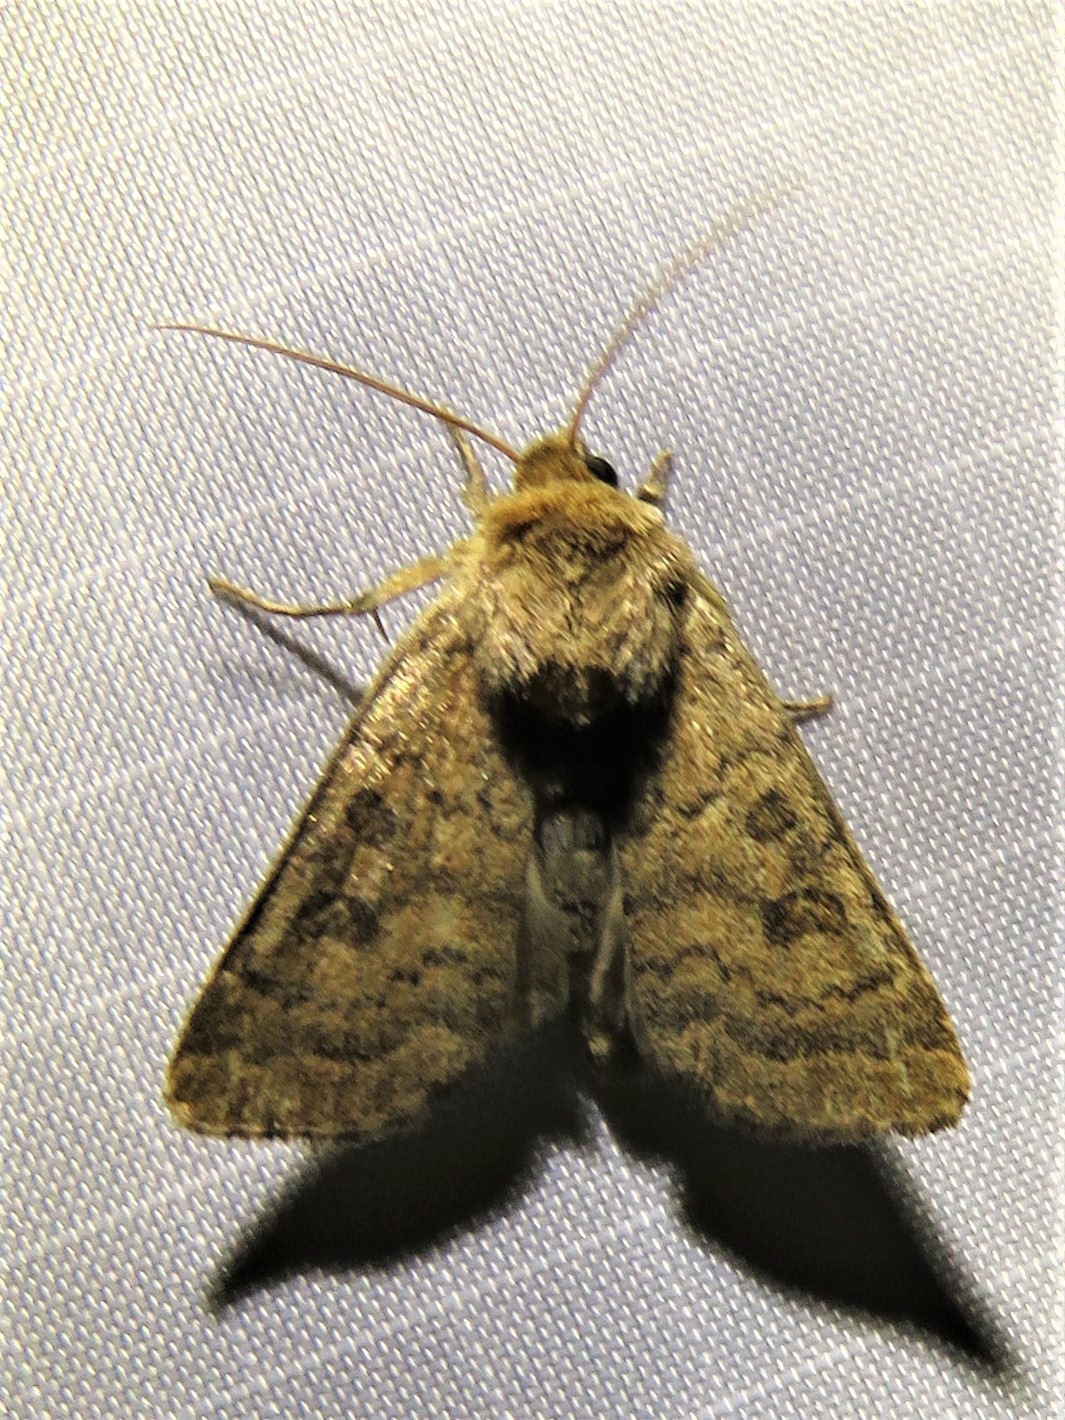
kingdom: Animalia
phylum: Arthropoda
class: Insecta
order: Lepidoptera
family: Noctuidae
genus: Hoplodrina
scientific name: Hoplodrina octogenaria
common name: Uncertain
